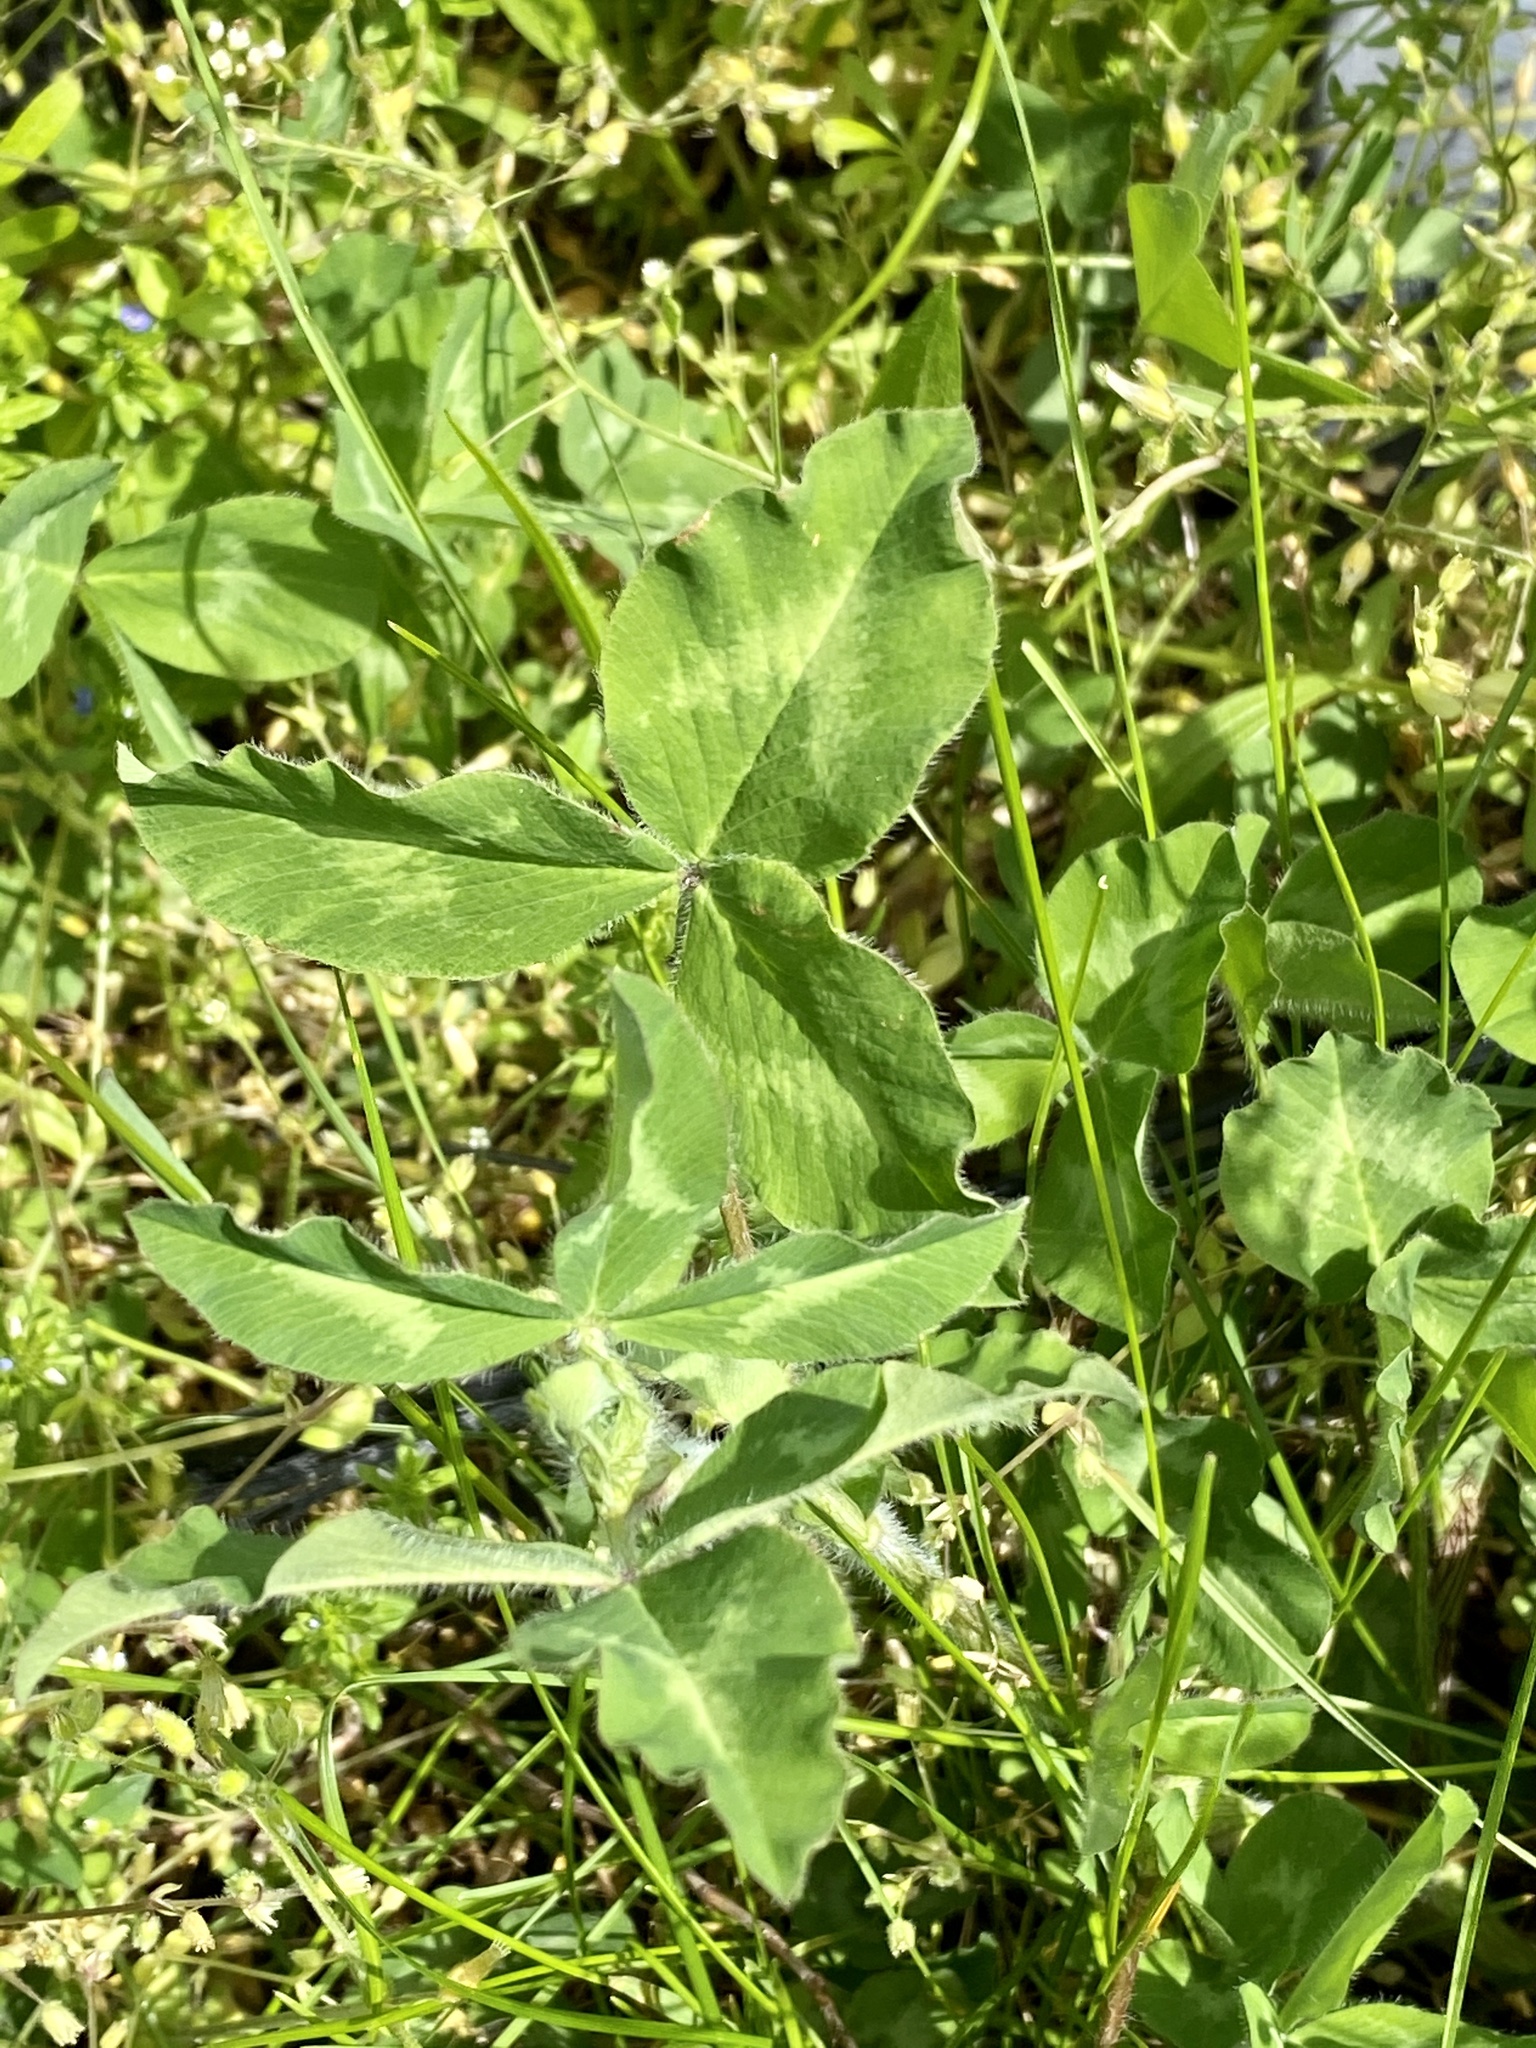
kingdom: Plantae
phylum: Tracheophyta
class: Magnoliopsida
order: Fabales
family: Fabaceae
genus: Trifolium
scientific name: Trifolium pratense
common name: Red clover
